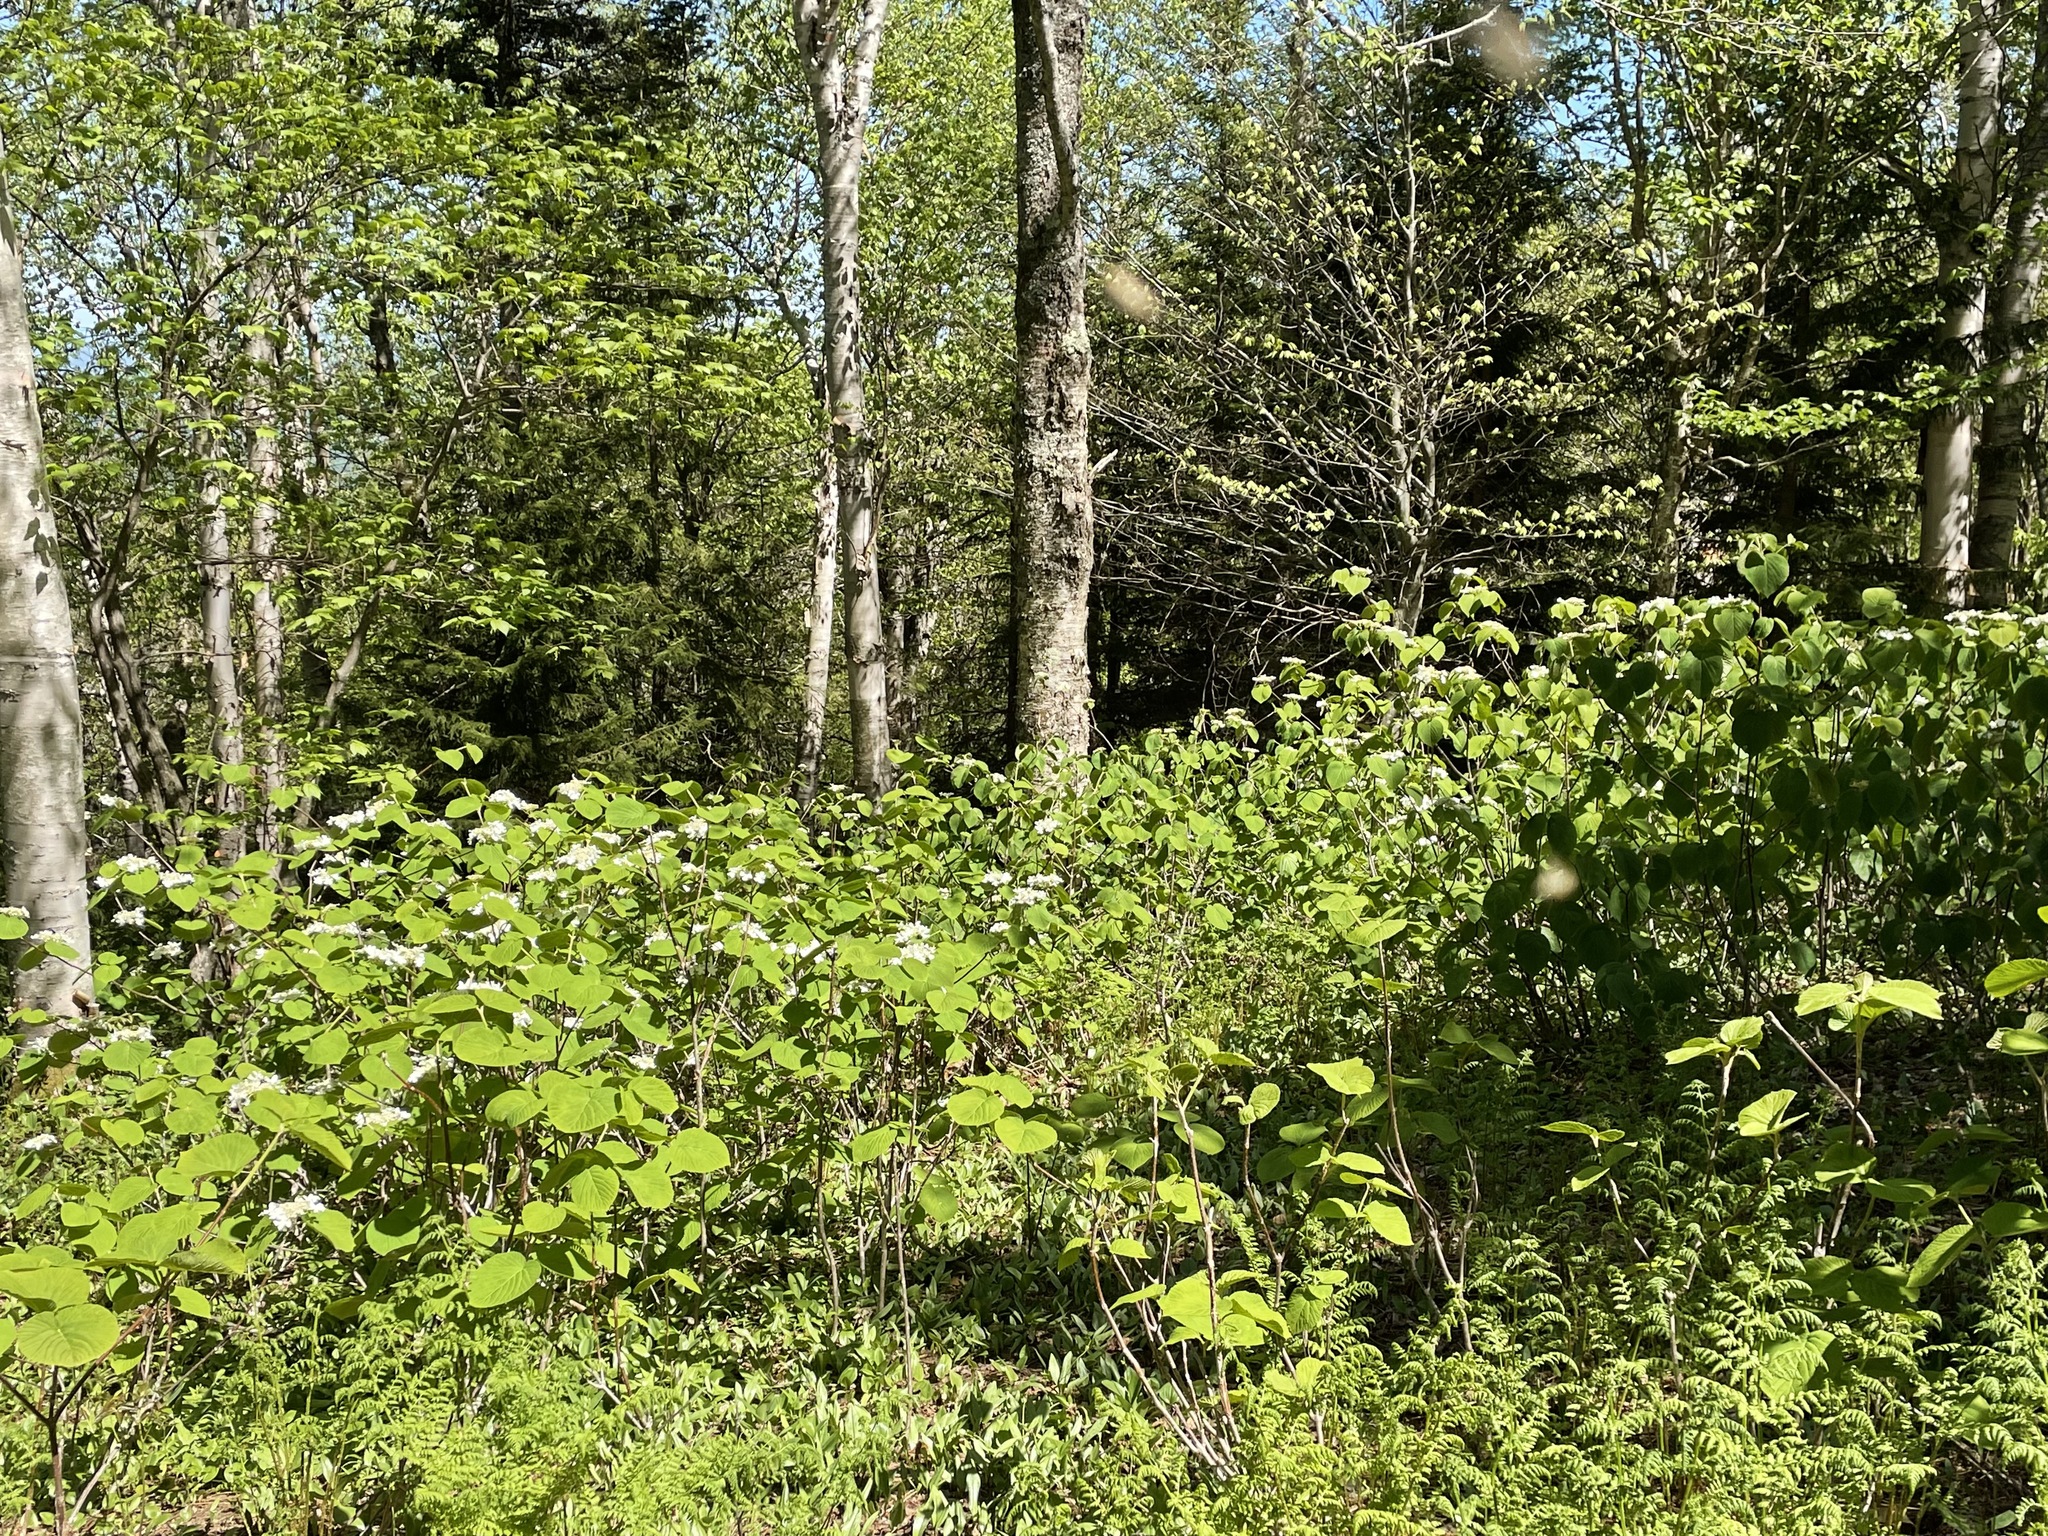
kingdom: Plantae
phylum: Tracheophyta
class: Magnoliopsida
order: Dipsacales
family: Viburnaceae
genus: Viburnum
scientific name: Viburnum lantanoides
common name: Hobblebush
